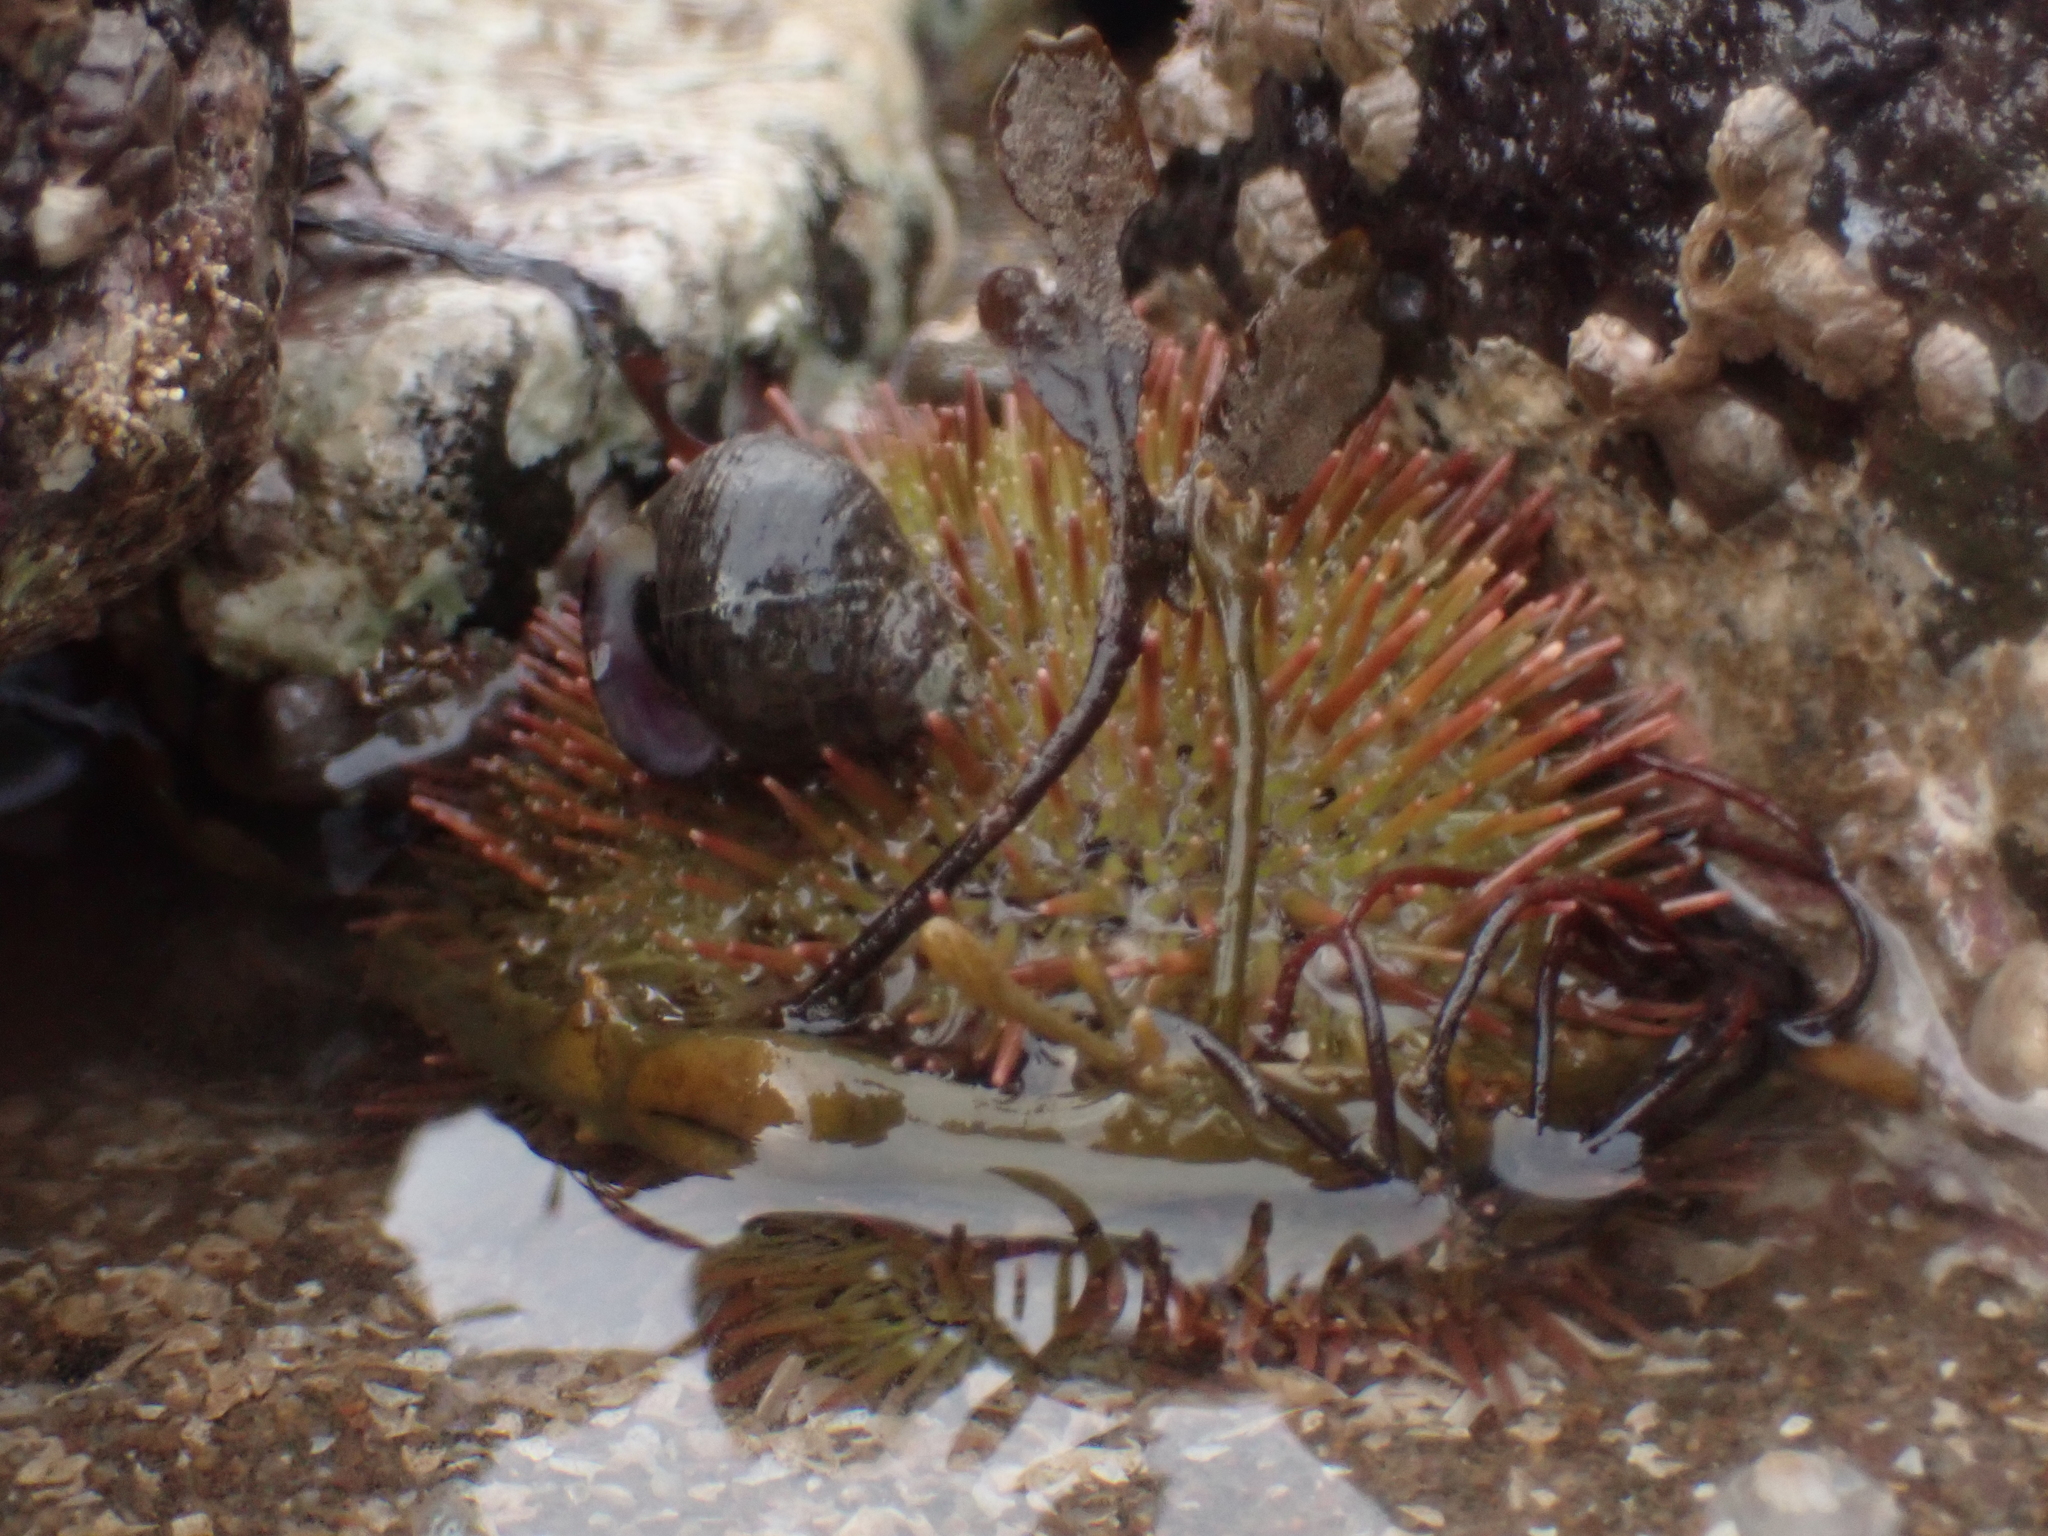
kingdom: Animalia
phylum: Echinodermata
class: Echinoidea
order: Camarodonta
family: Strongylocentrotidae
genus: Strongylocentrotus
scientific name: Strongylocentrotus droebachiensis
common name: Northern sea urchin
